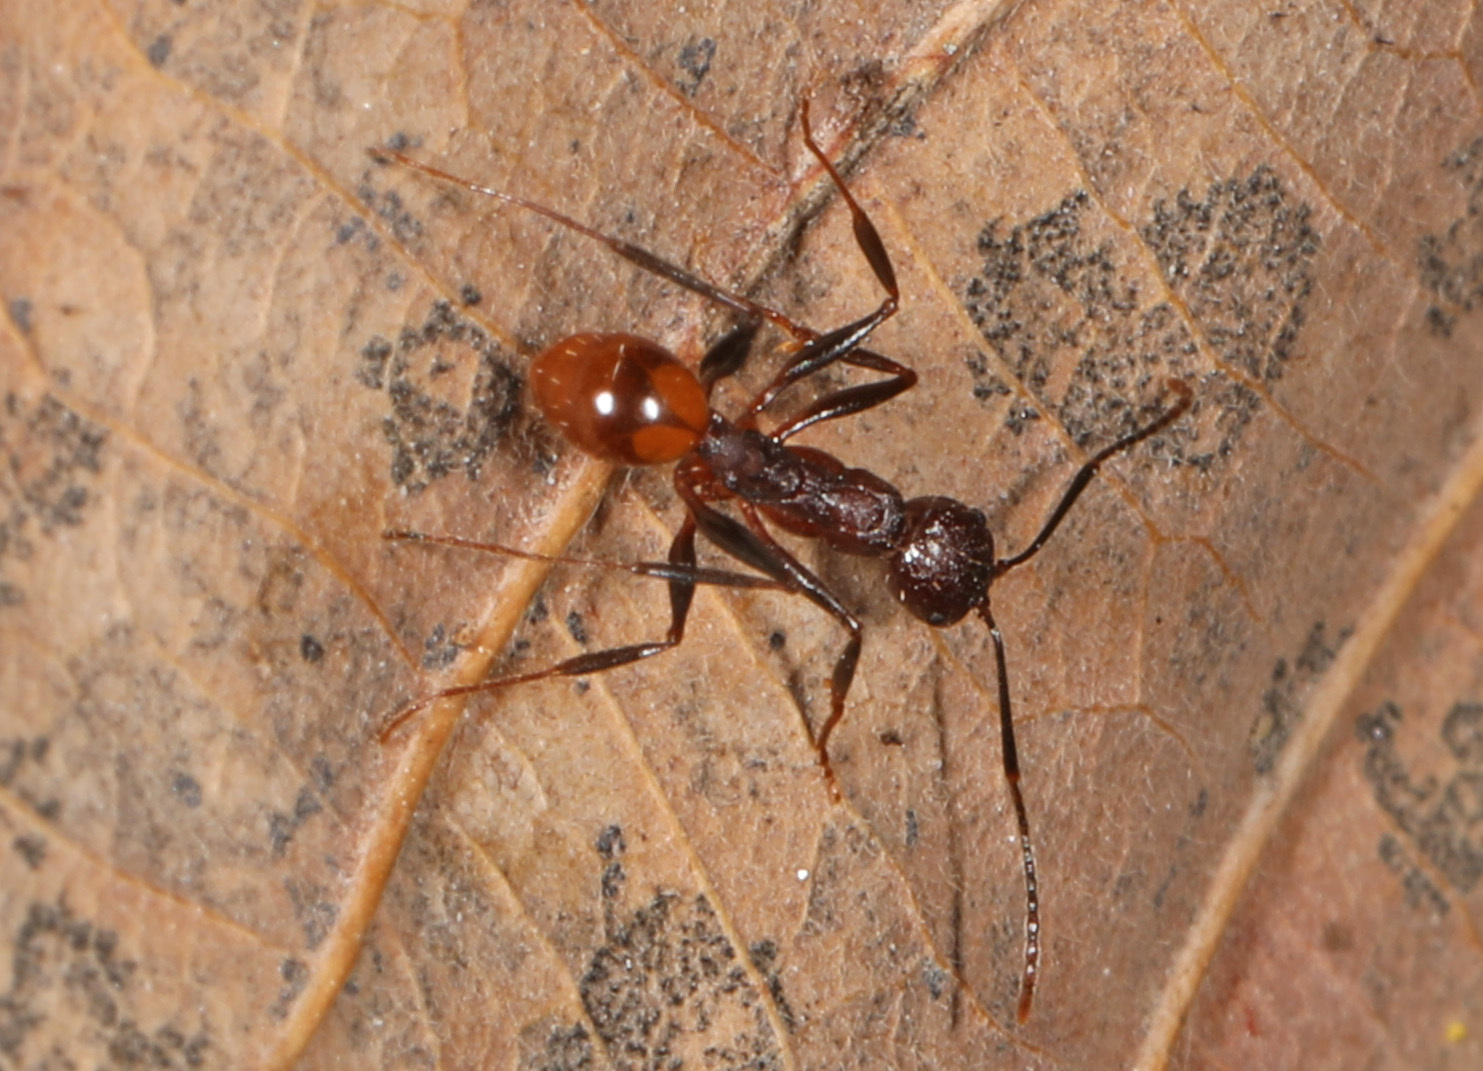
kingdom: Animalia
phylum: Arthropoda
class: Insecta
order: Hymenoptera
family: Formicidae
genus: Aphaenogaster
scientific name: Aphaenogaster lamellidens
